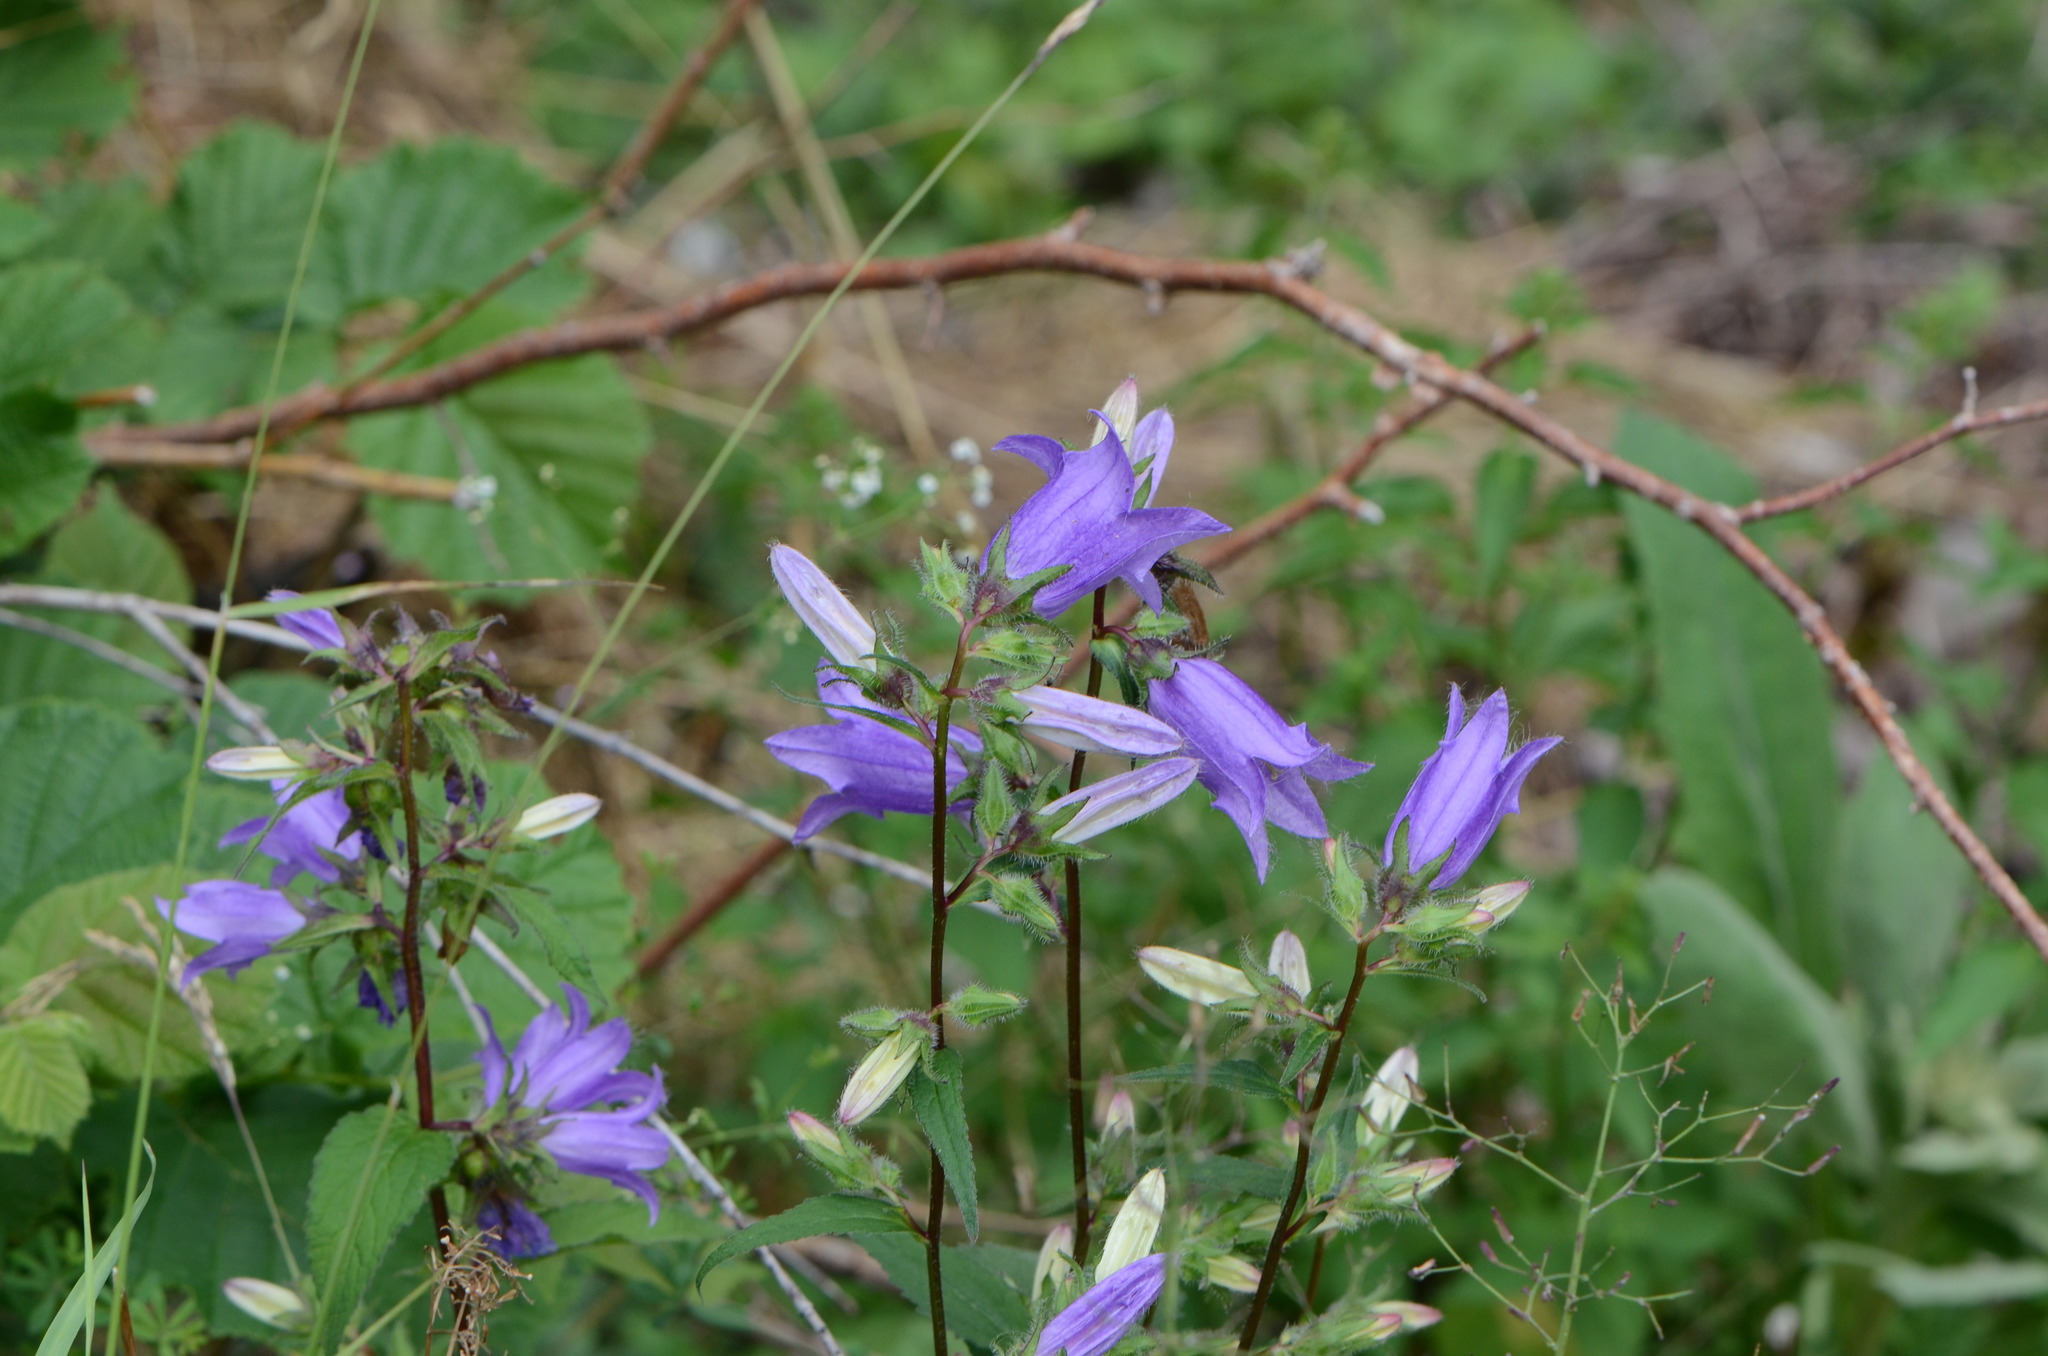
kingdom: Plantae
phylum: Tracheophyta
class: Magnoliopsida
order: Asterales
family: Campanulaceae
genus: Campanula
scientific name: Campanula trachelium
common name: Nettle-leaved bellflower
